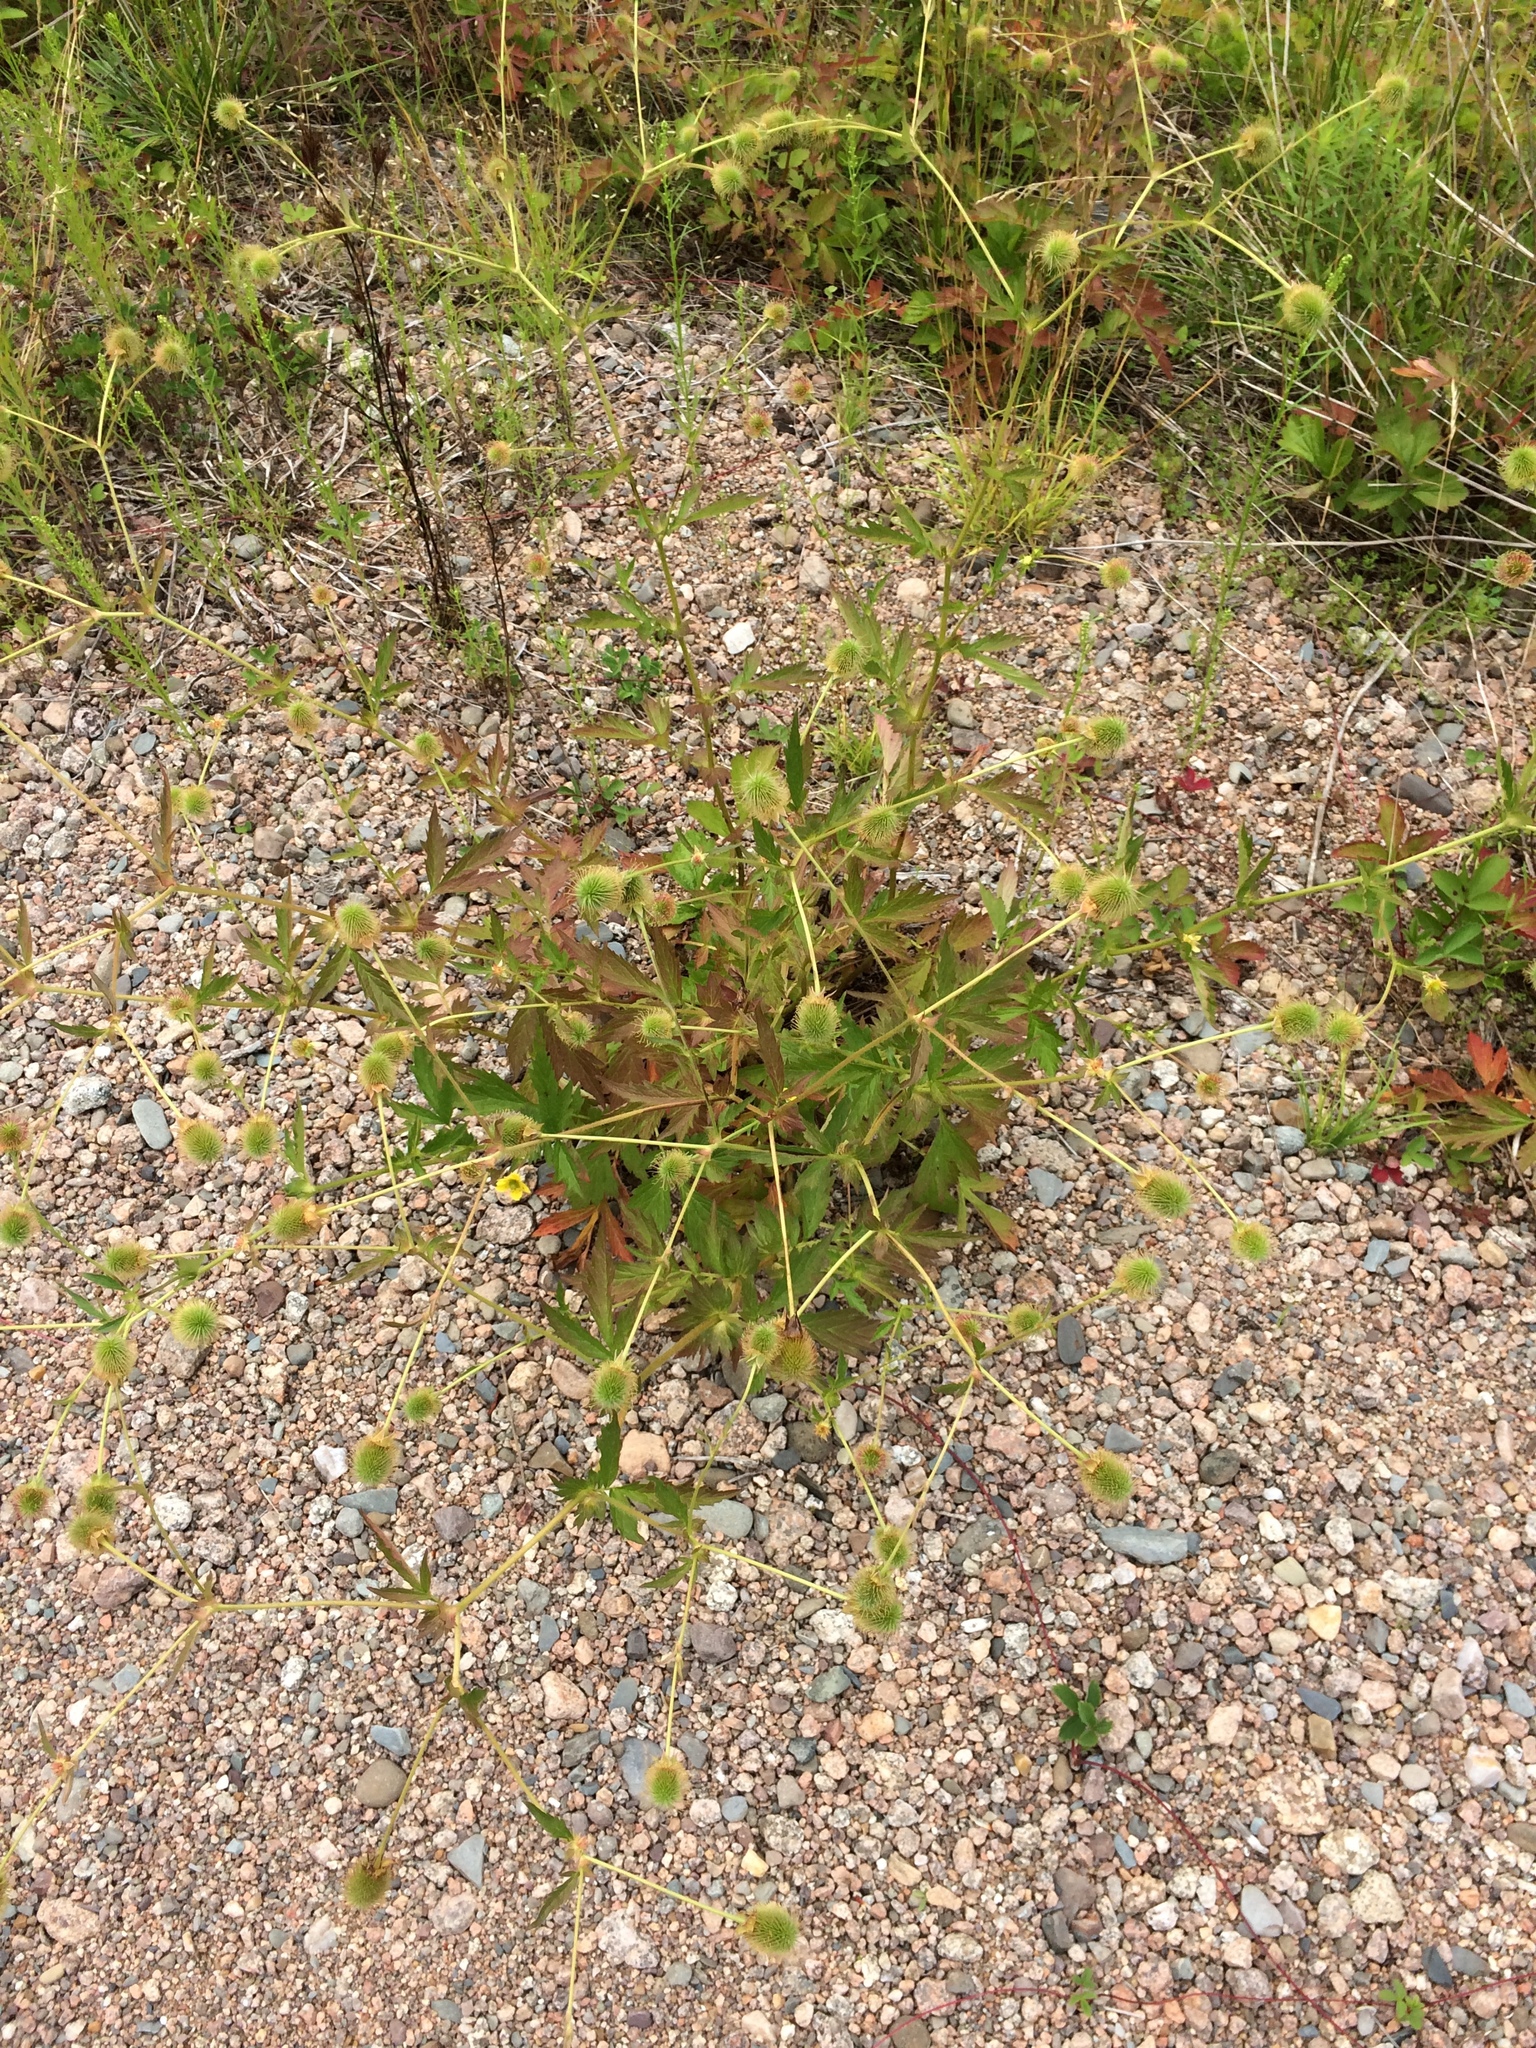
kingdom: Plantae
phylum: Tracheophyta
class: Magnoliopsida
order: Rosales
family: Rosaceae
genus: Geum
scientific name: Geum aleppicum
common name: Yellow avens
